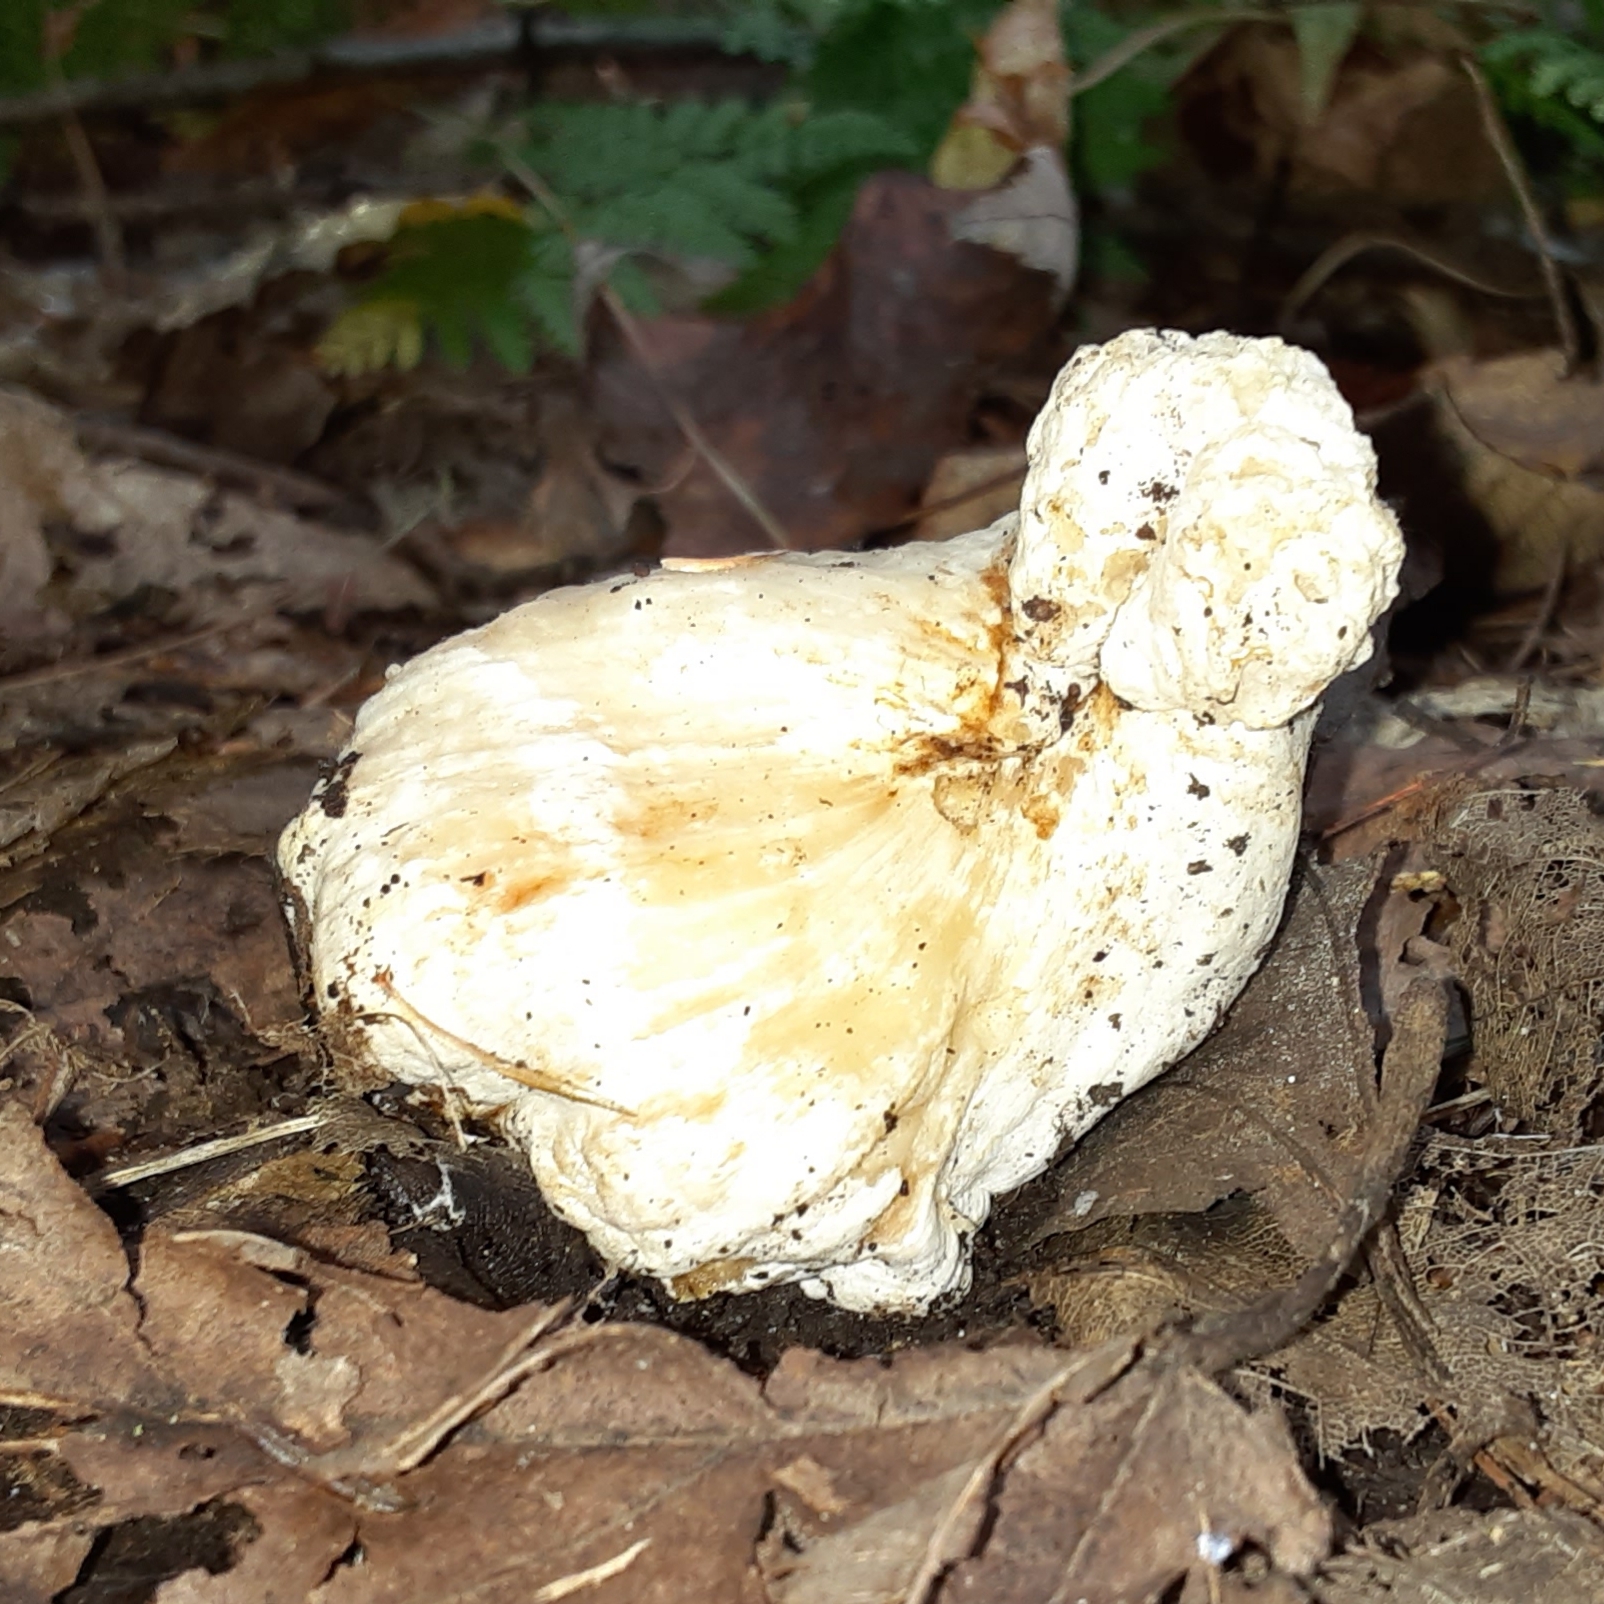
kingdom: Fungi
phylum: Basidiomycota
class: Agaricomycetes
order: Agaricales
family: Entolomataceae
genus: Entoloma
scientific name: Entoloma abortivum
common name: Aborted entoloma
